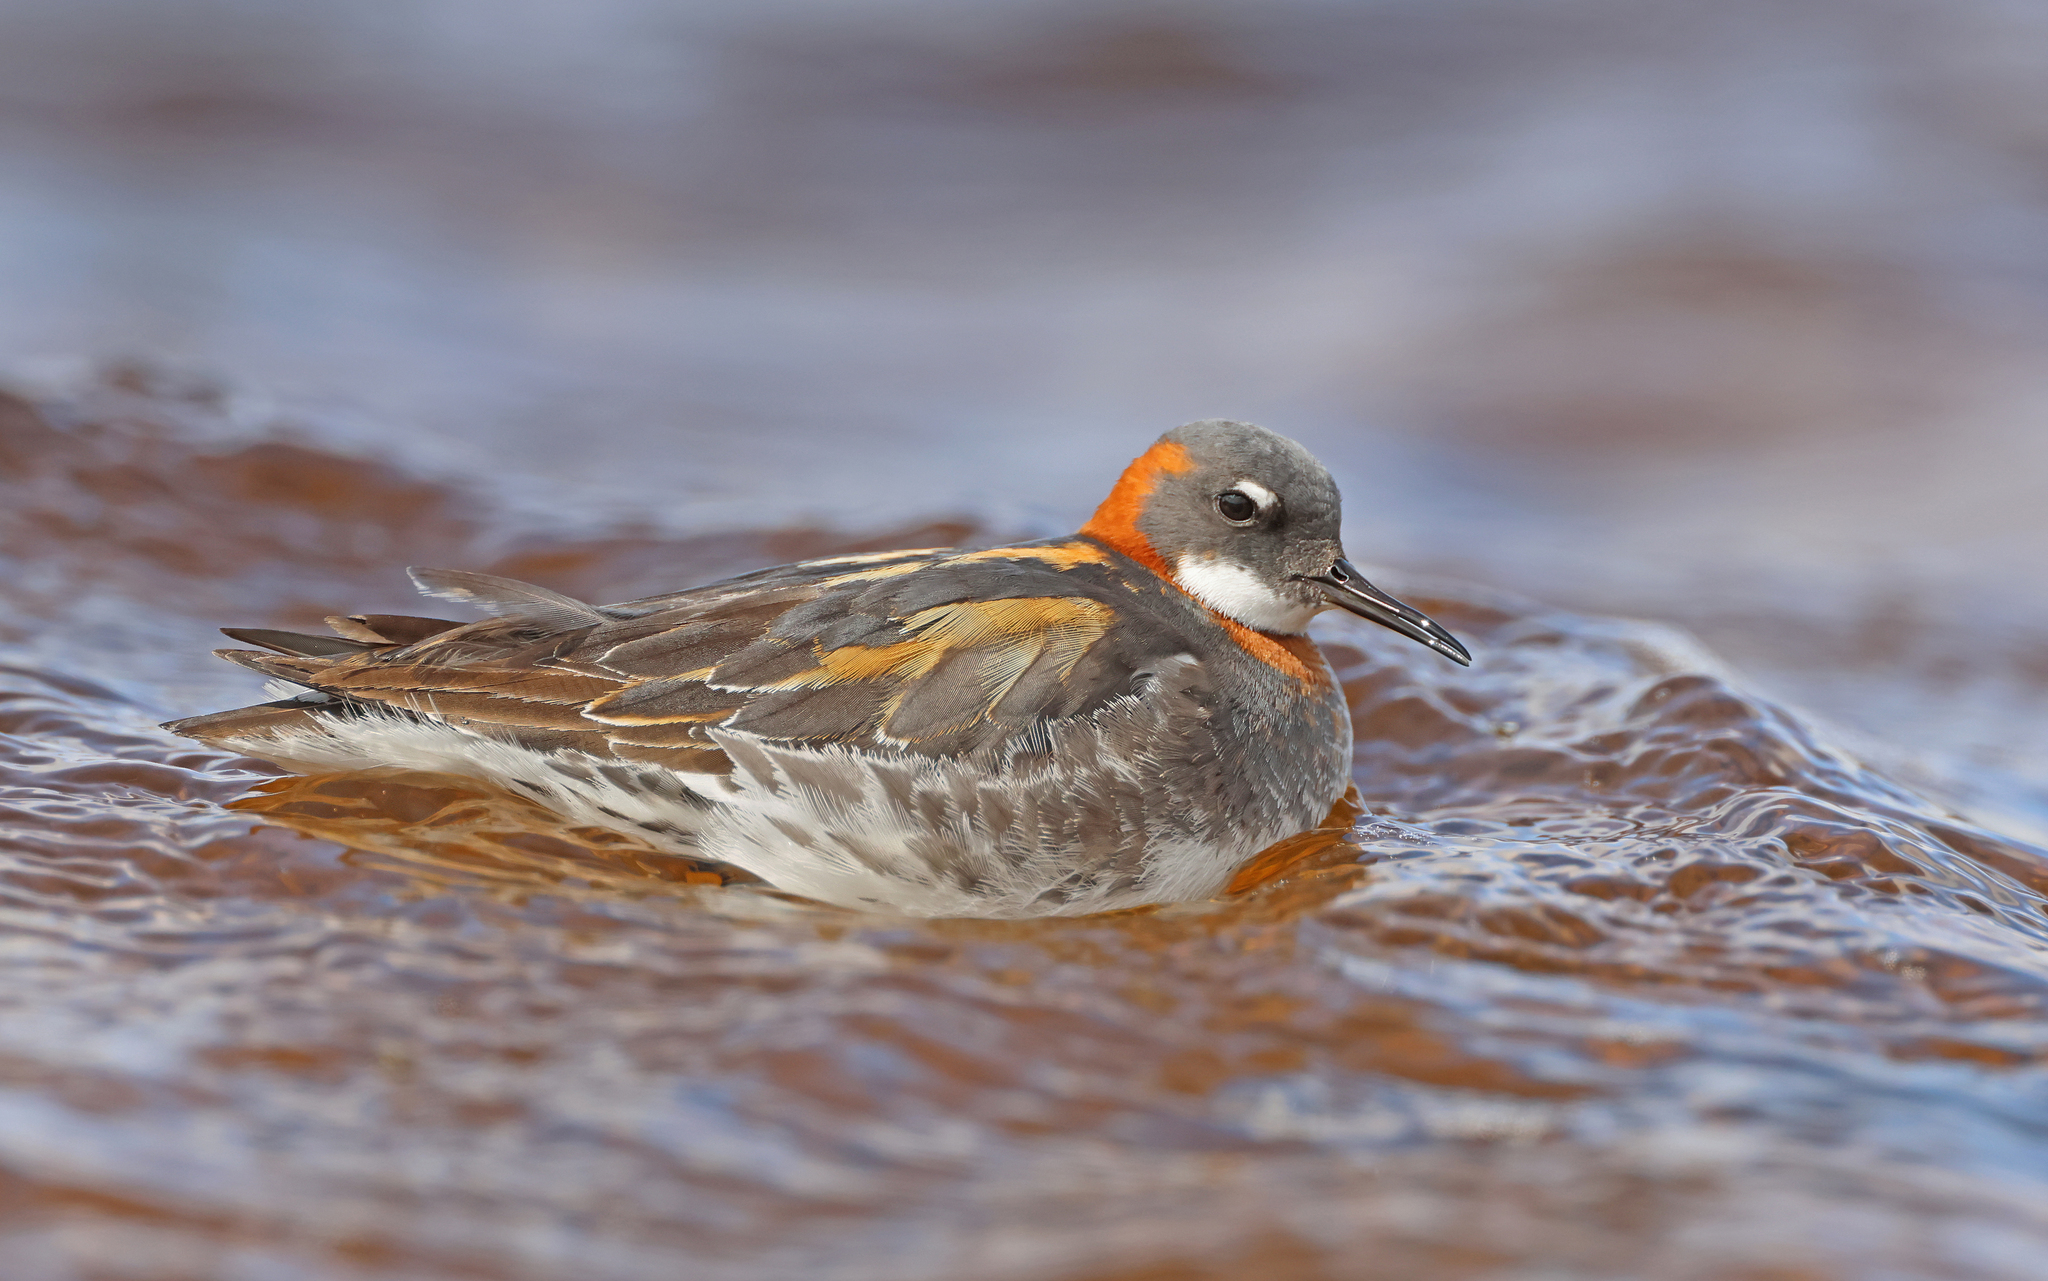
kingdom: Animalia
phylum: Chordata
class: Aves
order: Charadriiformes
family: Scolopacidae
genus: Phalaropus
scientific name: Phalaropus lobatus
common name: Red-necked phalarope
